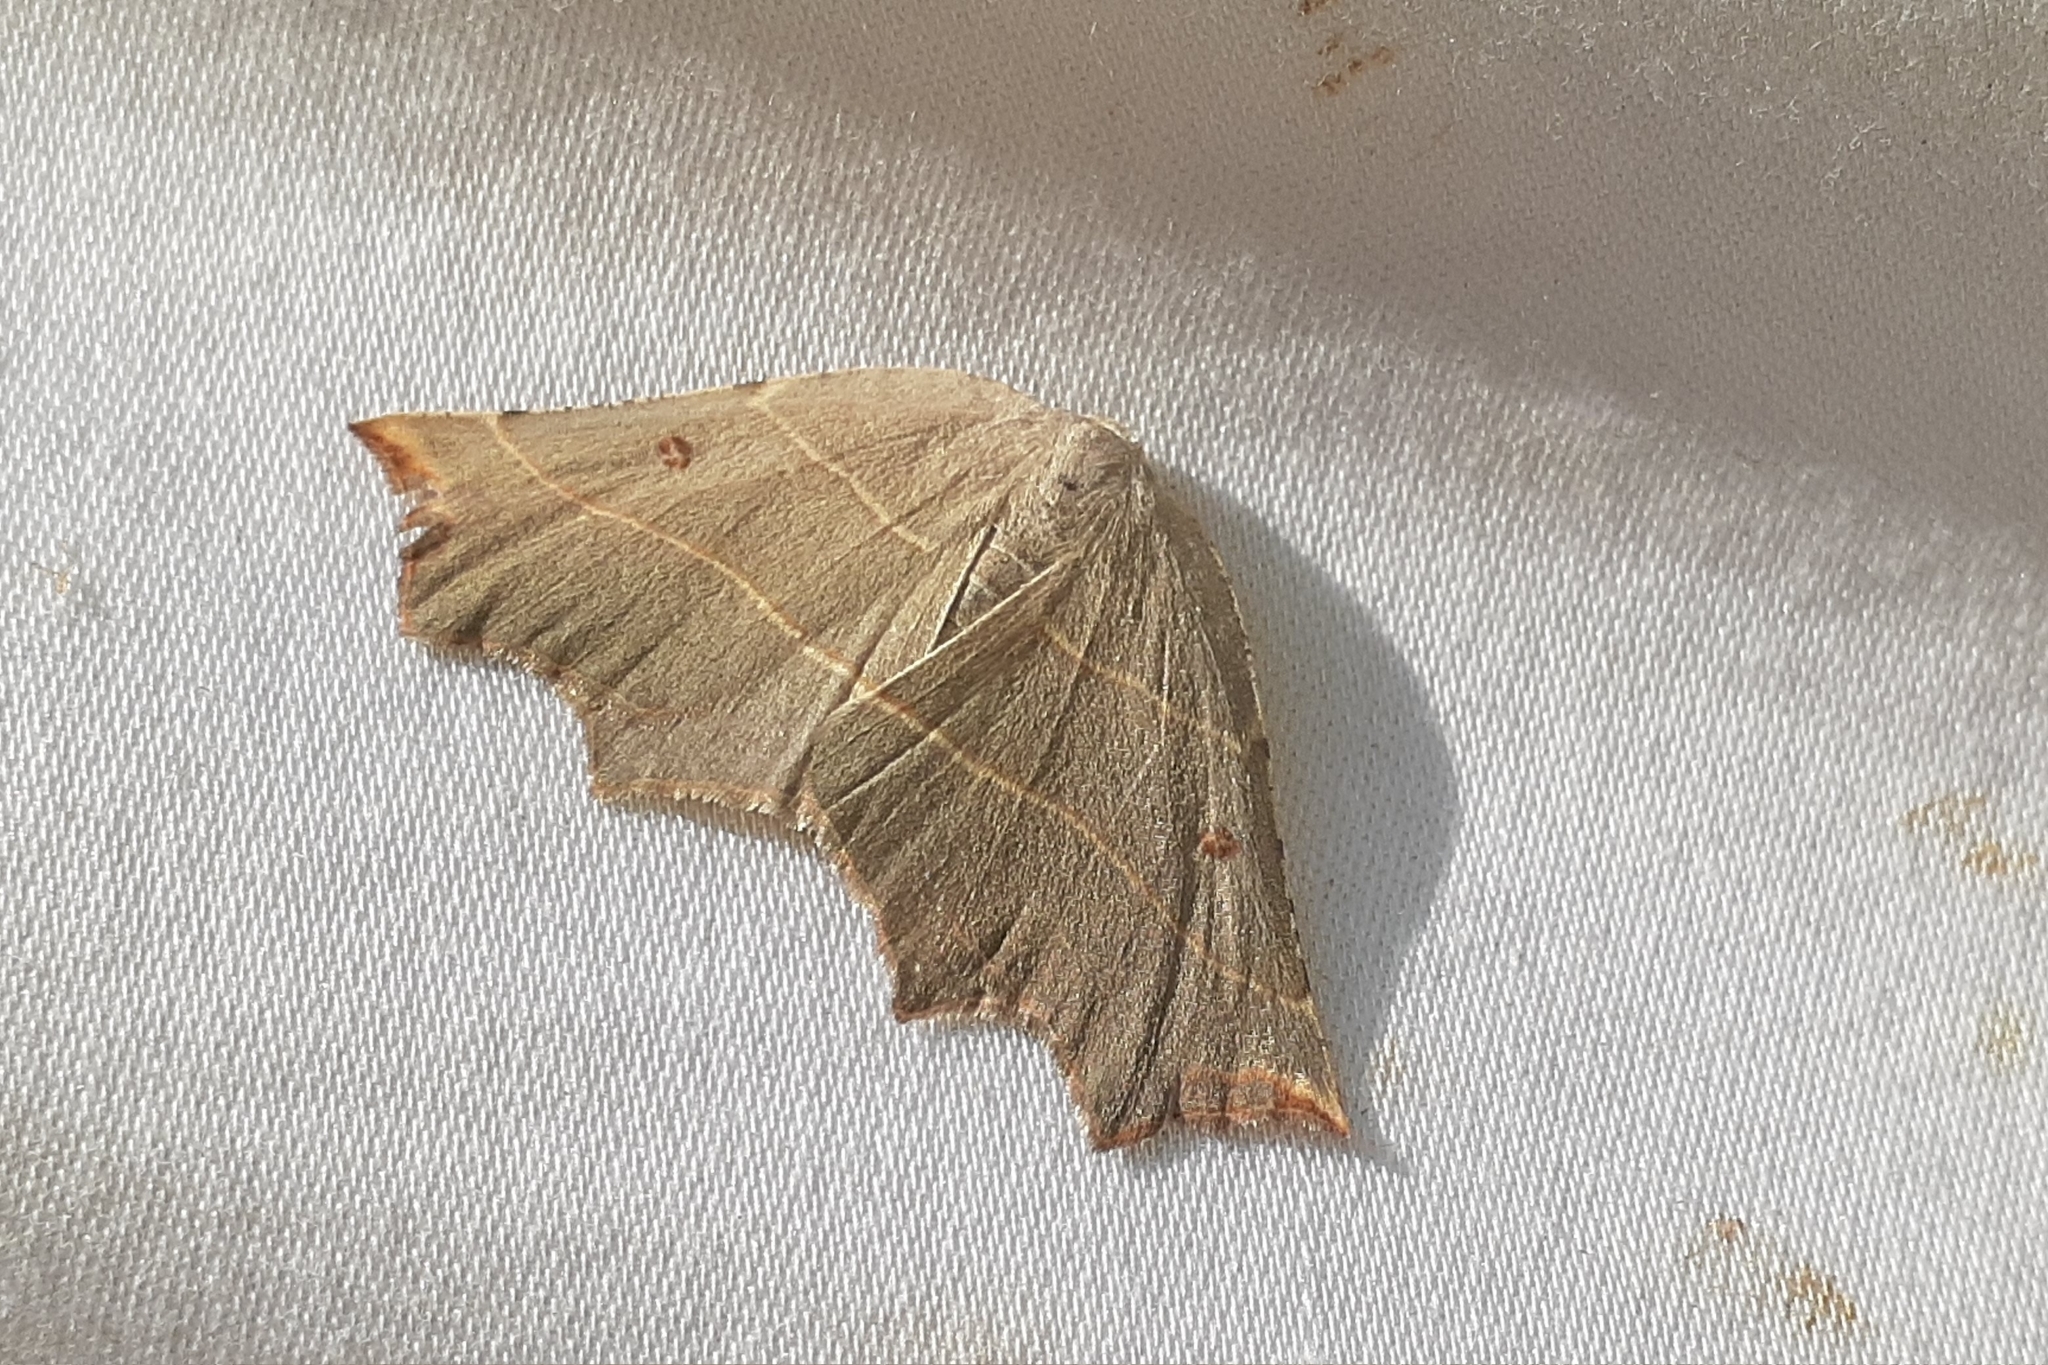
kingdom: Animalia
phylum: Arthropoda
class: Insecta
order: Lepidoptera
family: Geometridae
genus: Metanema
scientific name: Metanema inatomaria
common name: Pale metanema
